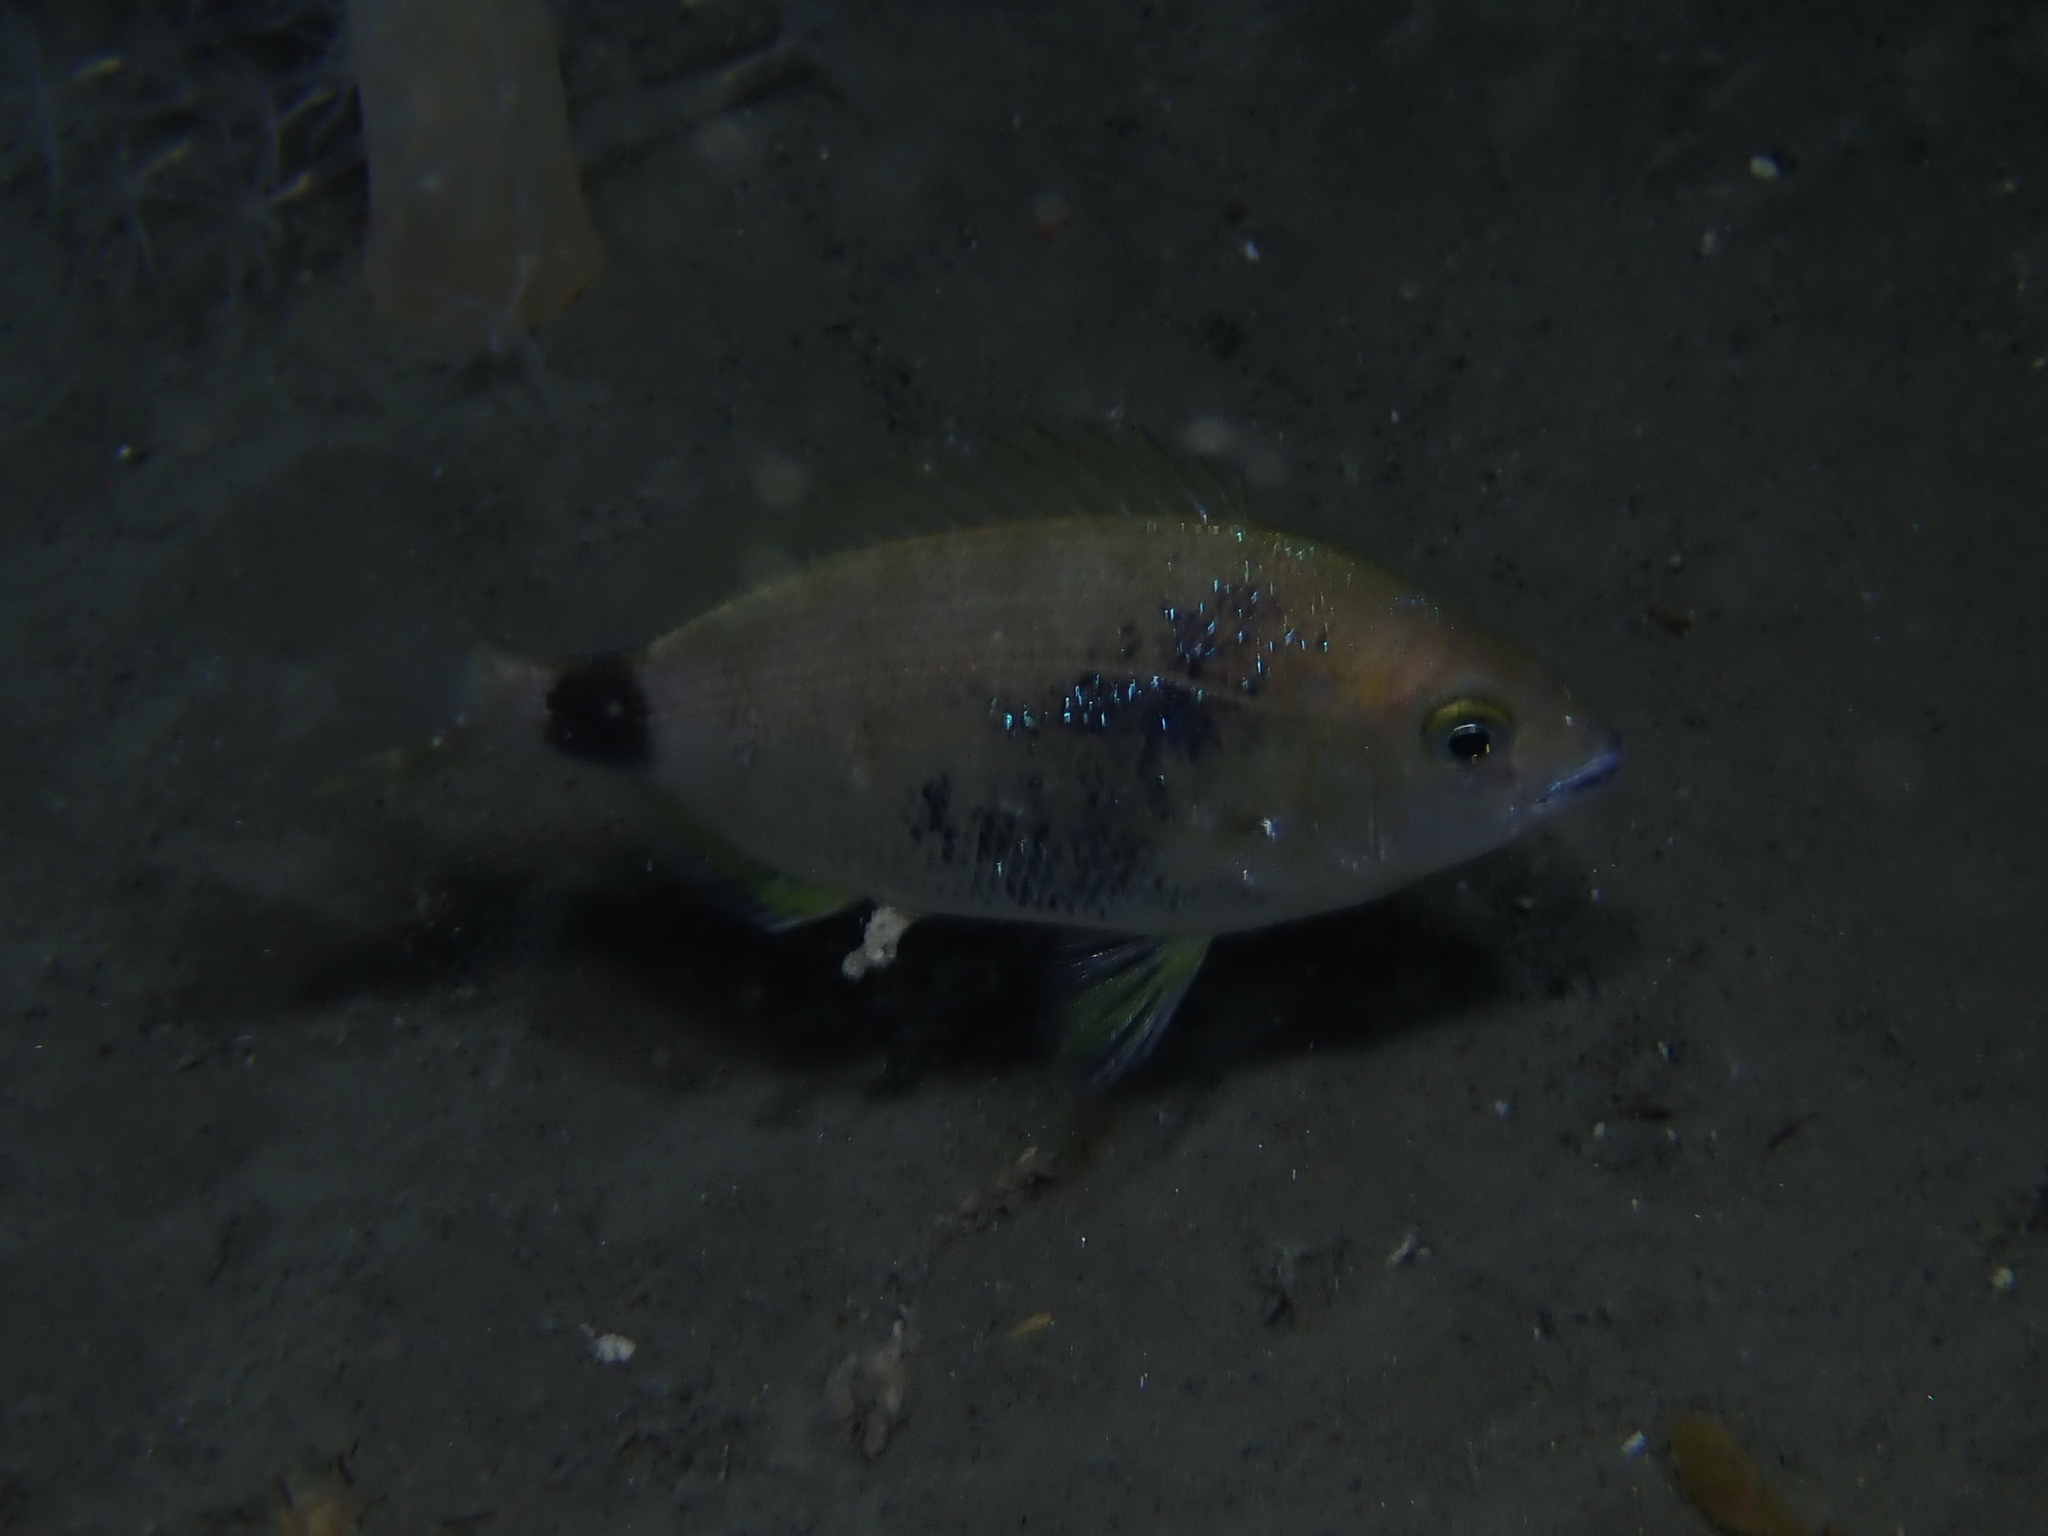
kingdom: Animalia
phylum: Chordata
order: Perciformes
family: Sparidae
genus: Diplodus
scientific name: Diplodus annularis
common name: Annular seabream
